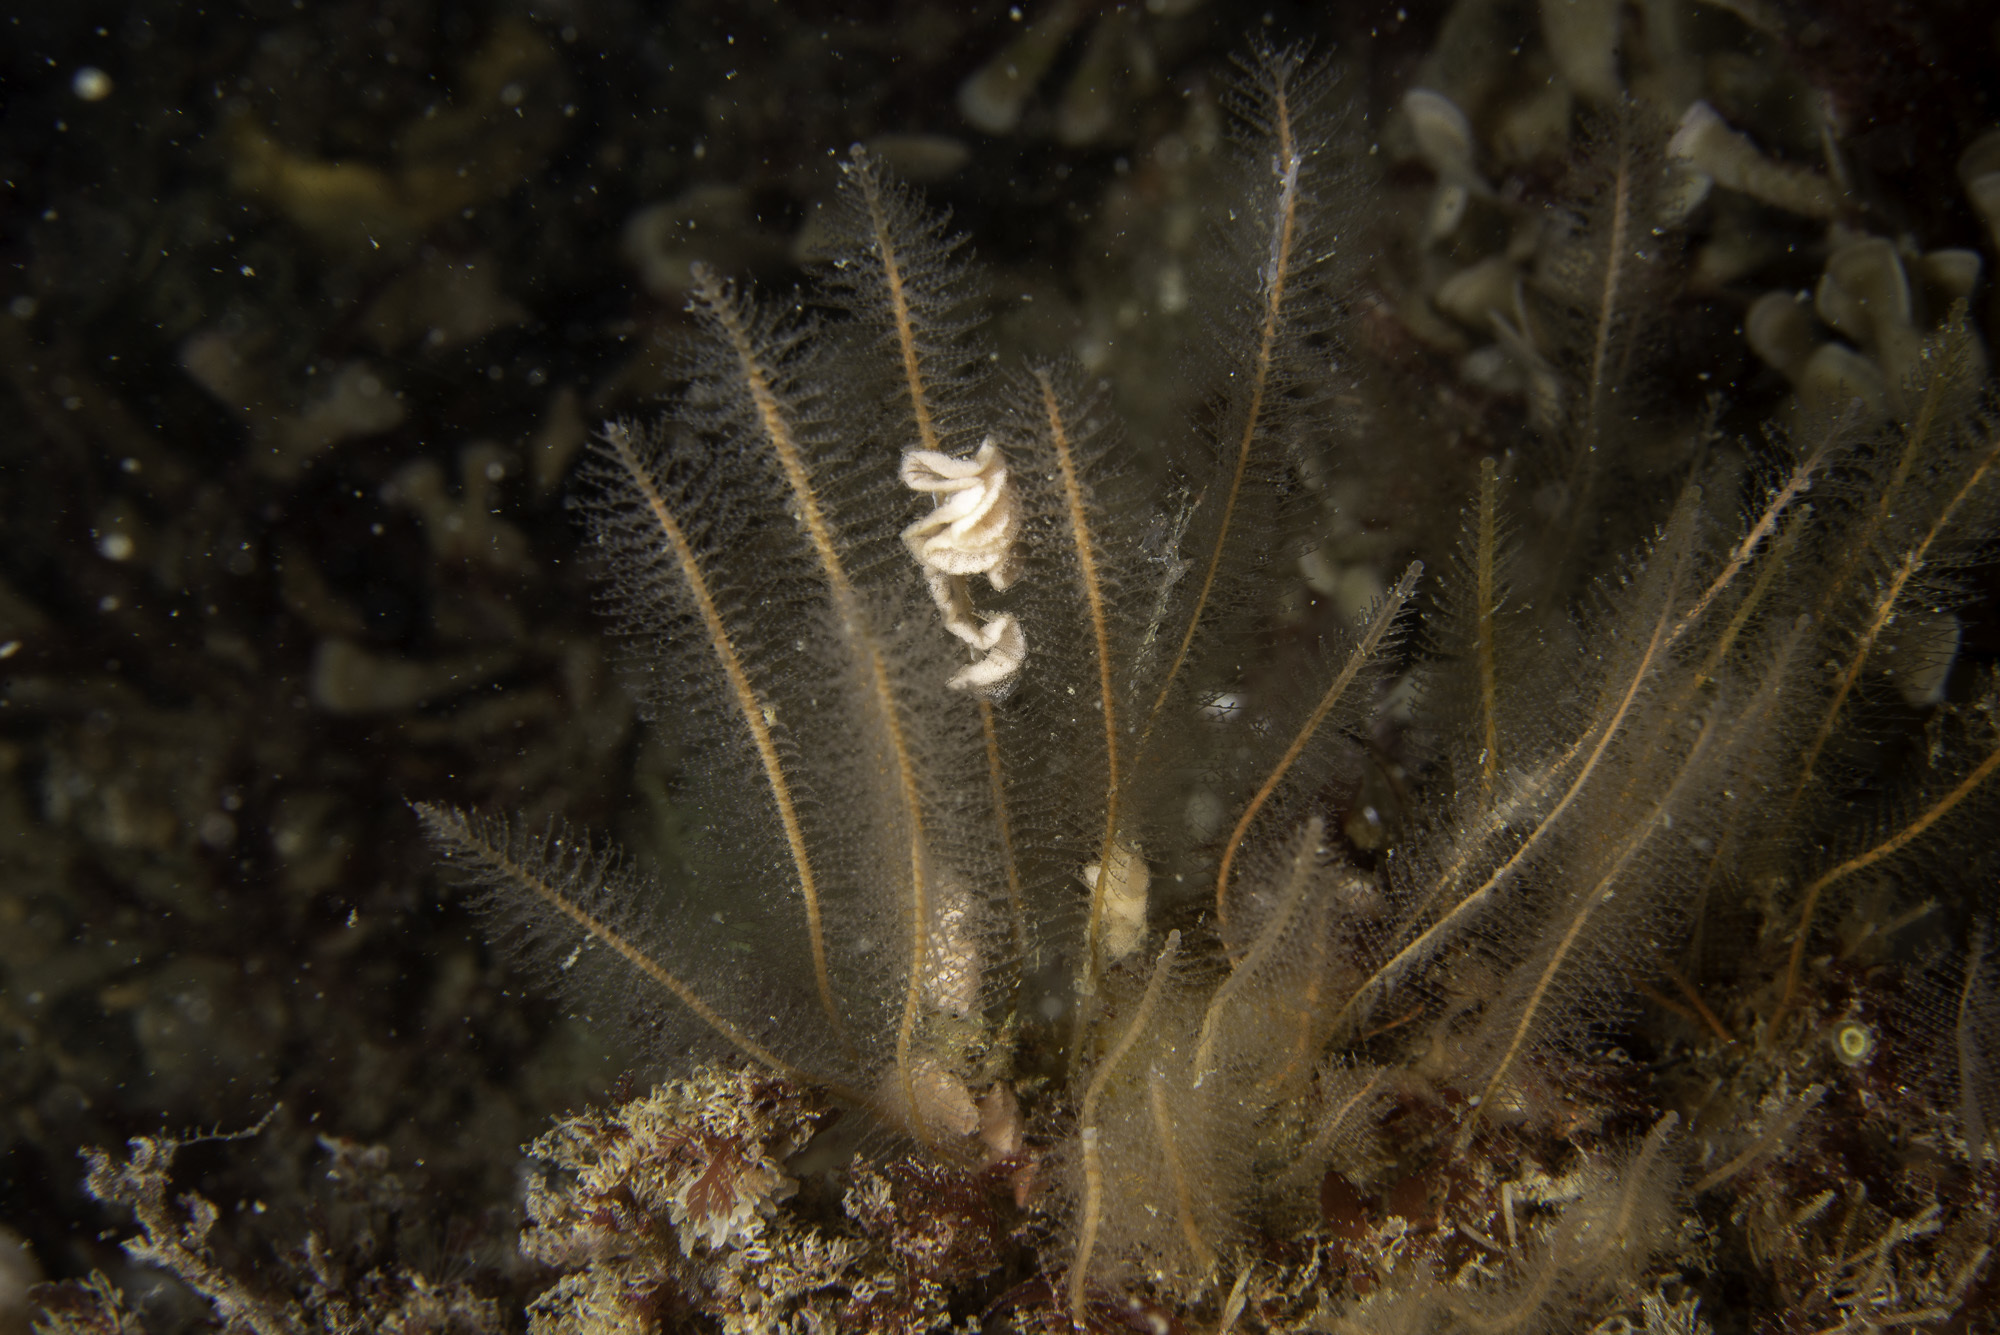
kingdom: Animalia
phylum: Cnidaria
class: Hydrozoa
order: Leptothecata
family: Plumulariidae
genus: Nemertesia
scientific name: Nemertesia antennina
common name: Sea beard
